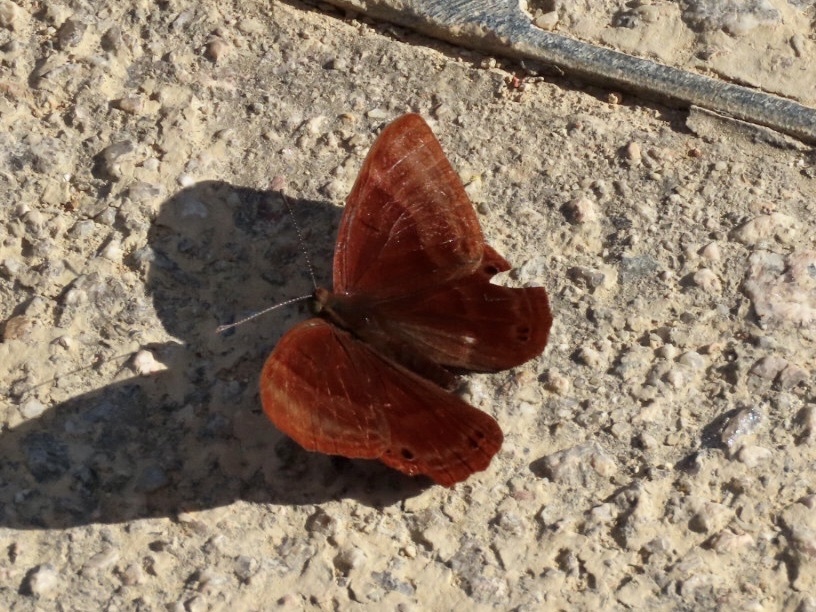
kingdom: Animalia
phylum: Arthropoda
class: Insecta
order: Lepidoptera
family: Lycaenidae
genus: Abisara
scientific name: Abisara echeria
